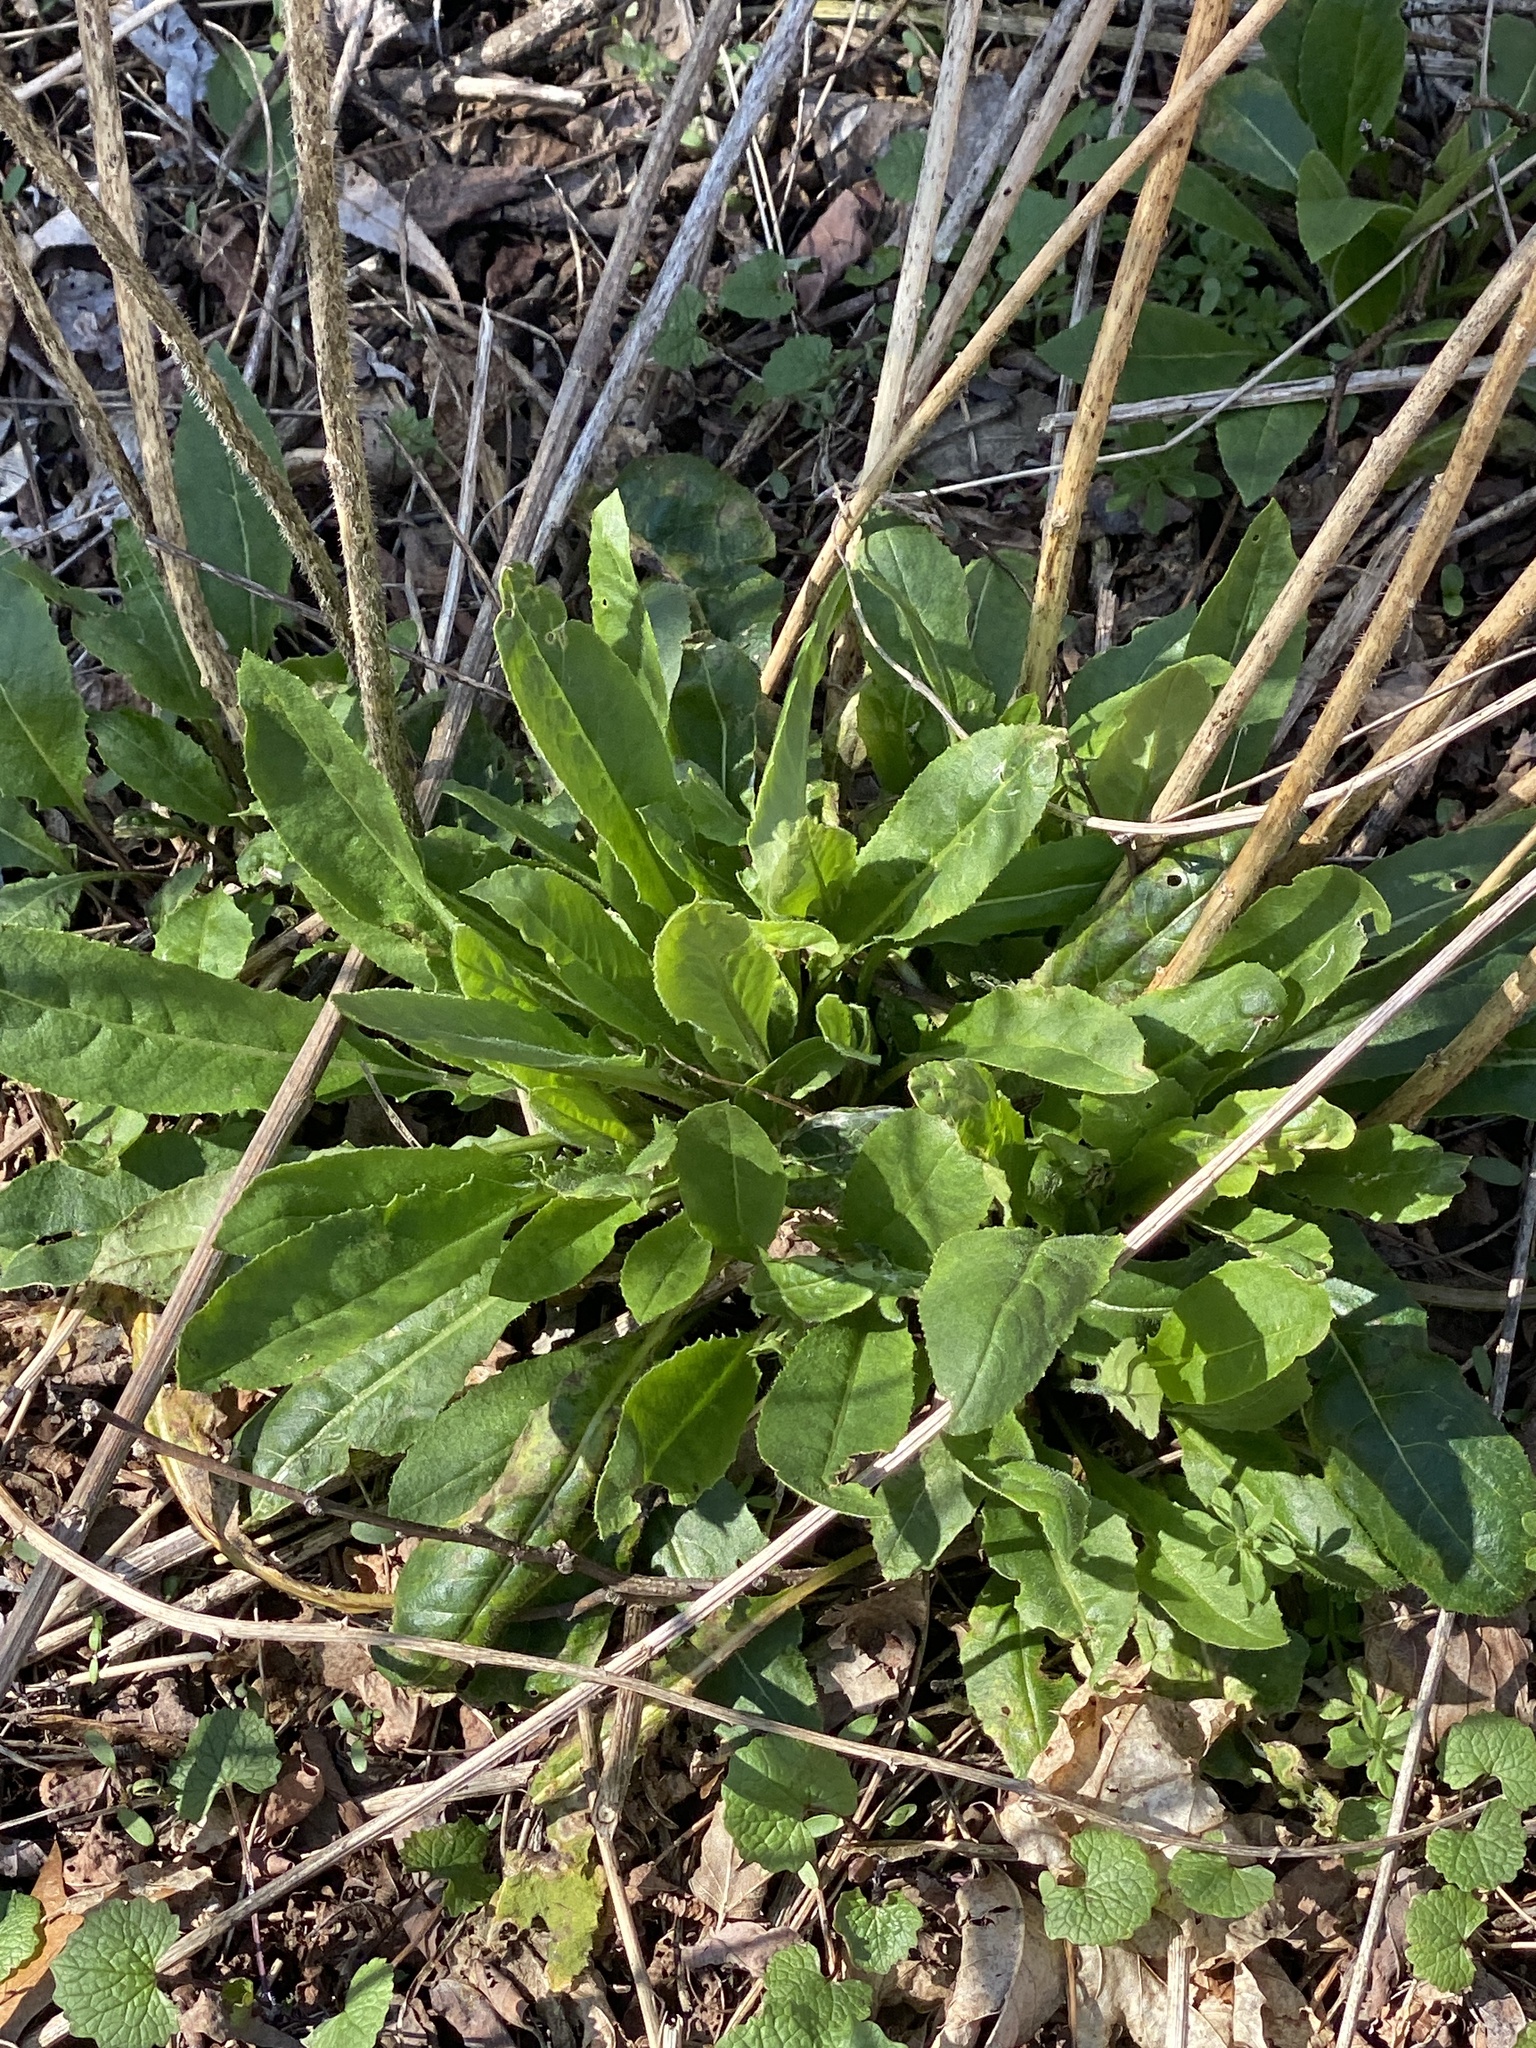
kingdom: Plantae
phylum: Tracheophyta
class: Magnoliopsida
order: Brassicales
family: Brassicaceae
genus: Hesperis
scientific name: Hesperis matronalis
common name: Dame's-violet
